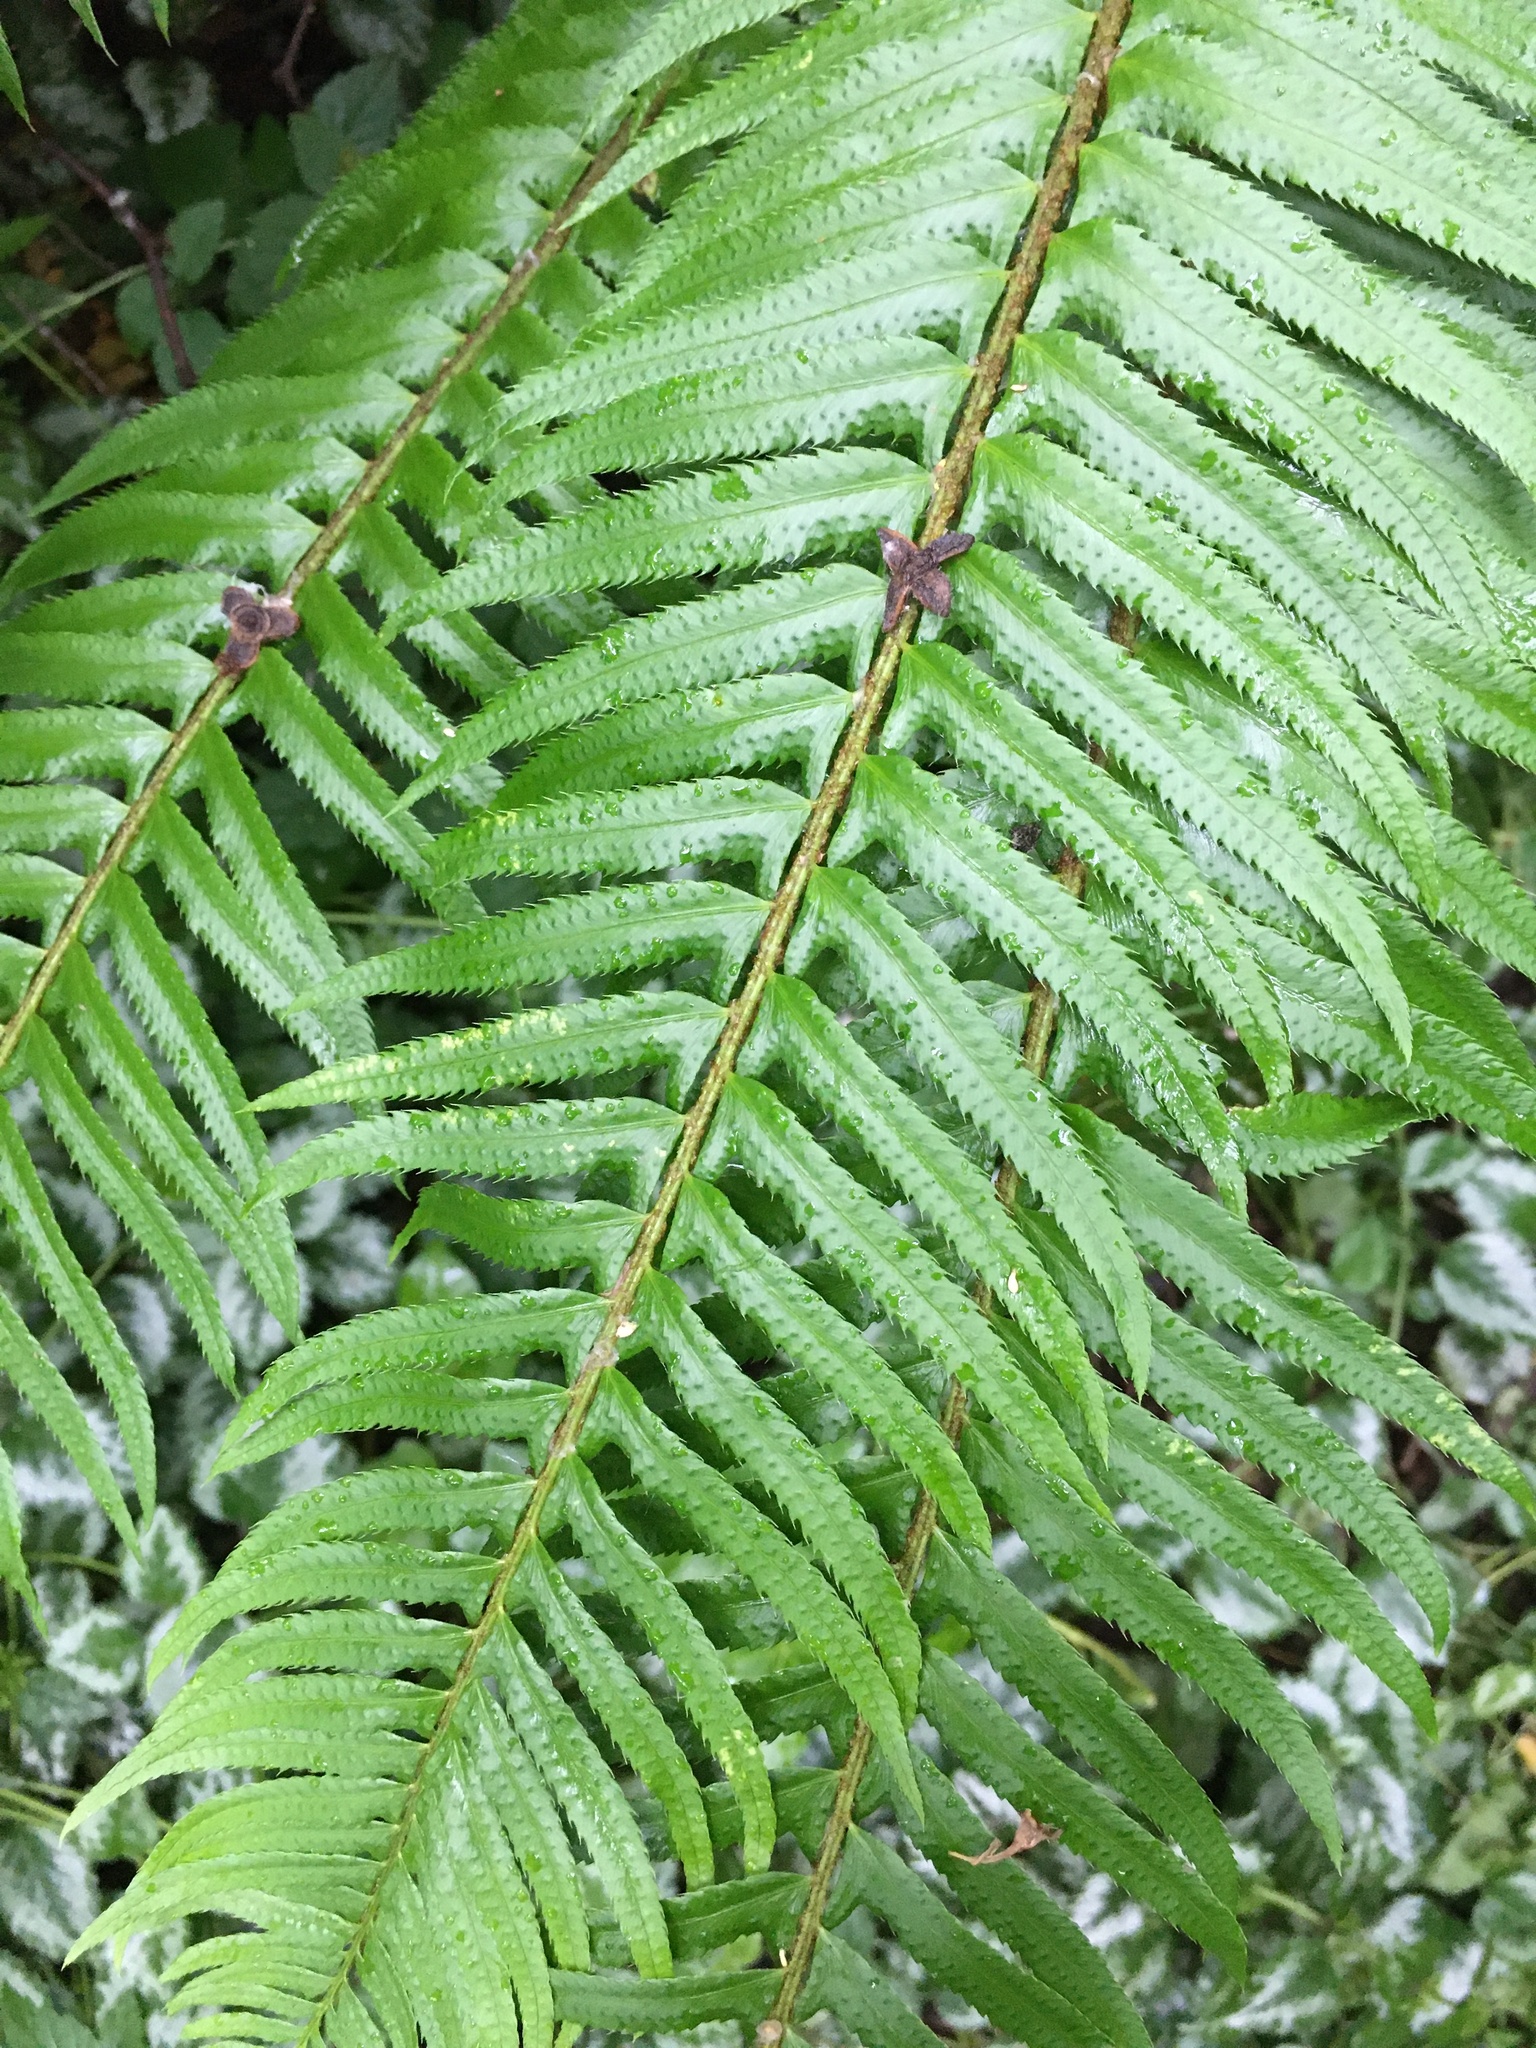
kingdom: Plantae
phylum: Tracheophyta
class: Polypodiopsida
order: Polypodiales
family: Dryopteridaceae
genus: Polystichum
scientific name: Polystichum munitum
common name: Western sword-fern
